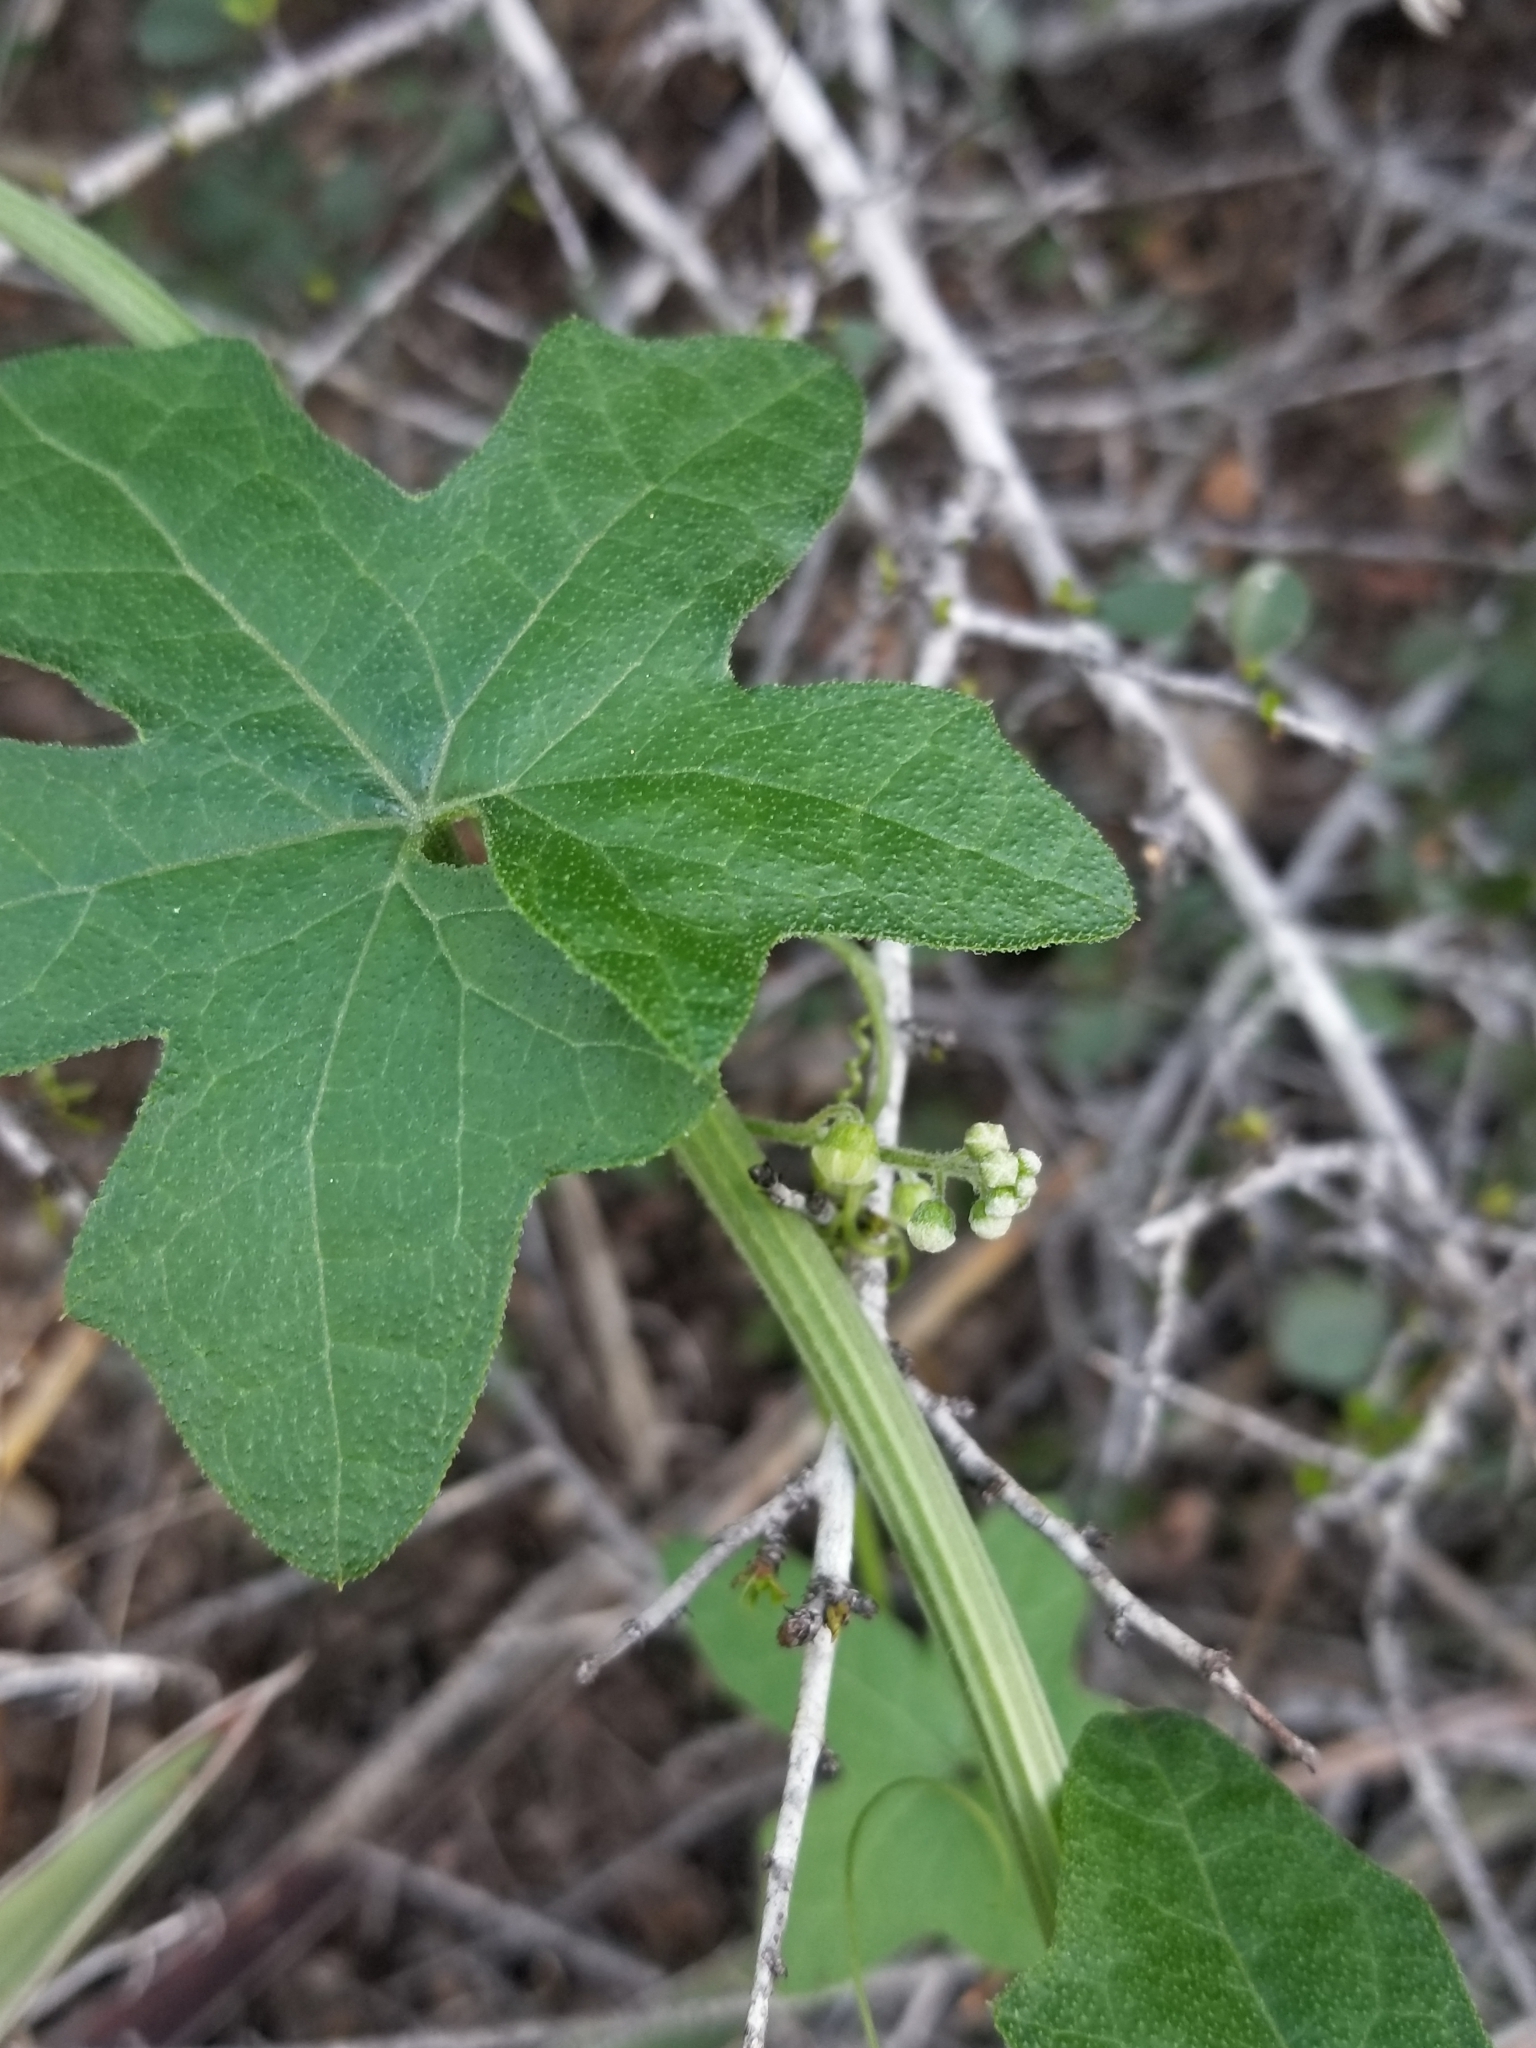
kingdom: Plantae
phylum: Tracheophyta
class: Magnoliopsida
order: Cucurbitales
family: Cucurbitaceae
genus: Marah
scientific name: Marah macrocarpa
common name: Cucamonga manroot
